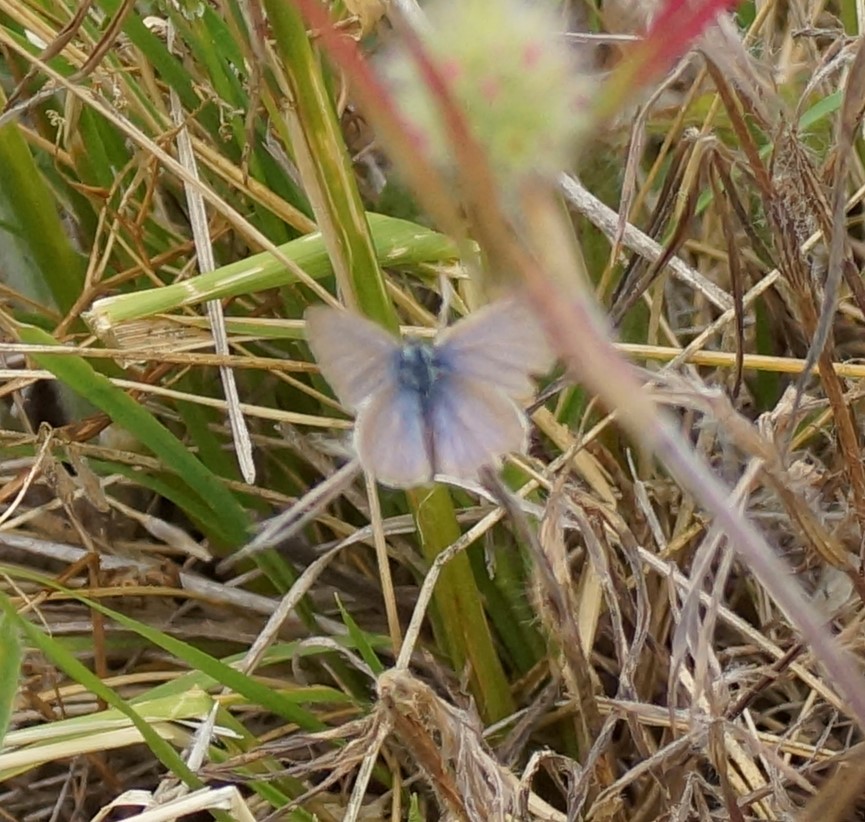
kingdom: Animalia
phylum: Arthropoda
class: Insecta
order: Lepidoptera
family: Lycaenidae
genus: Zizina
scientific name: Zizina labradus
